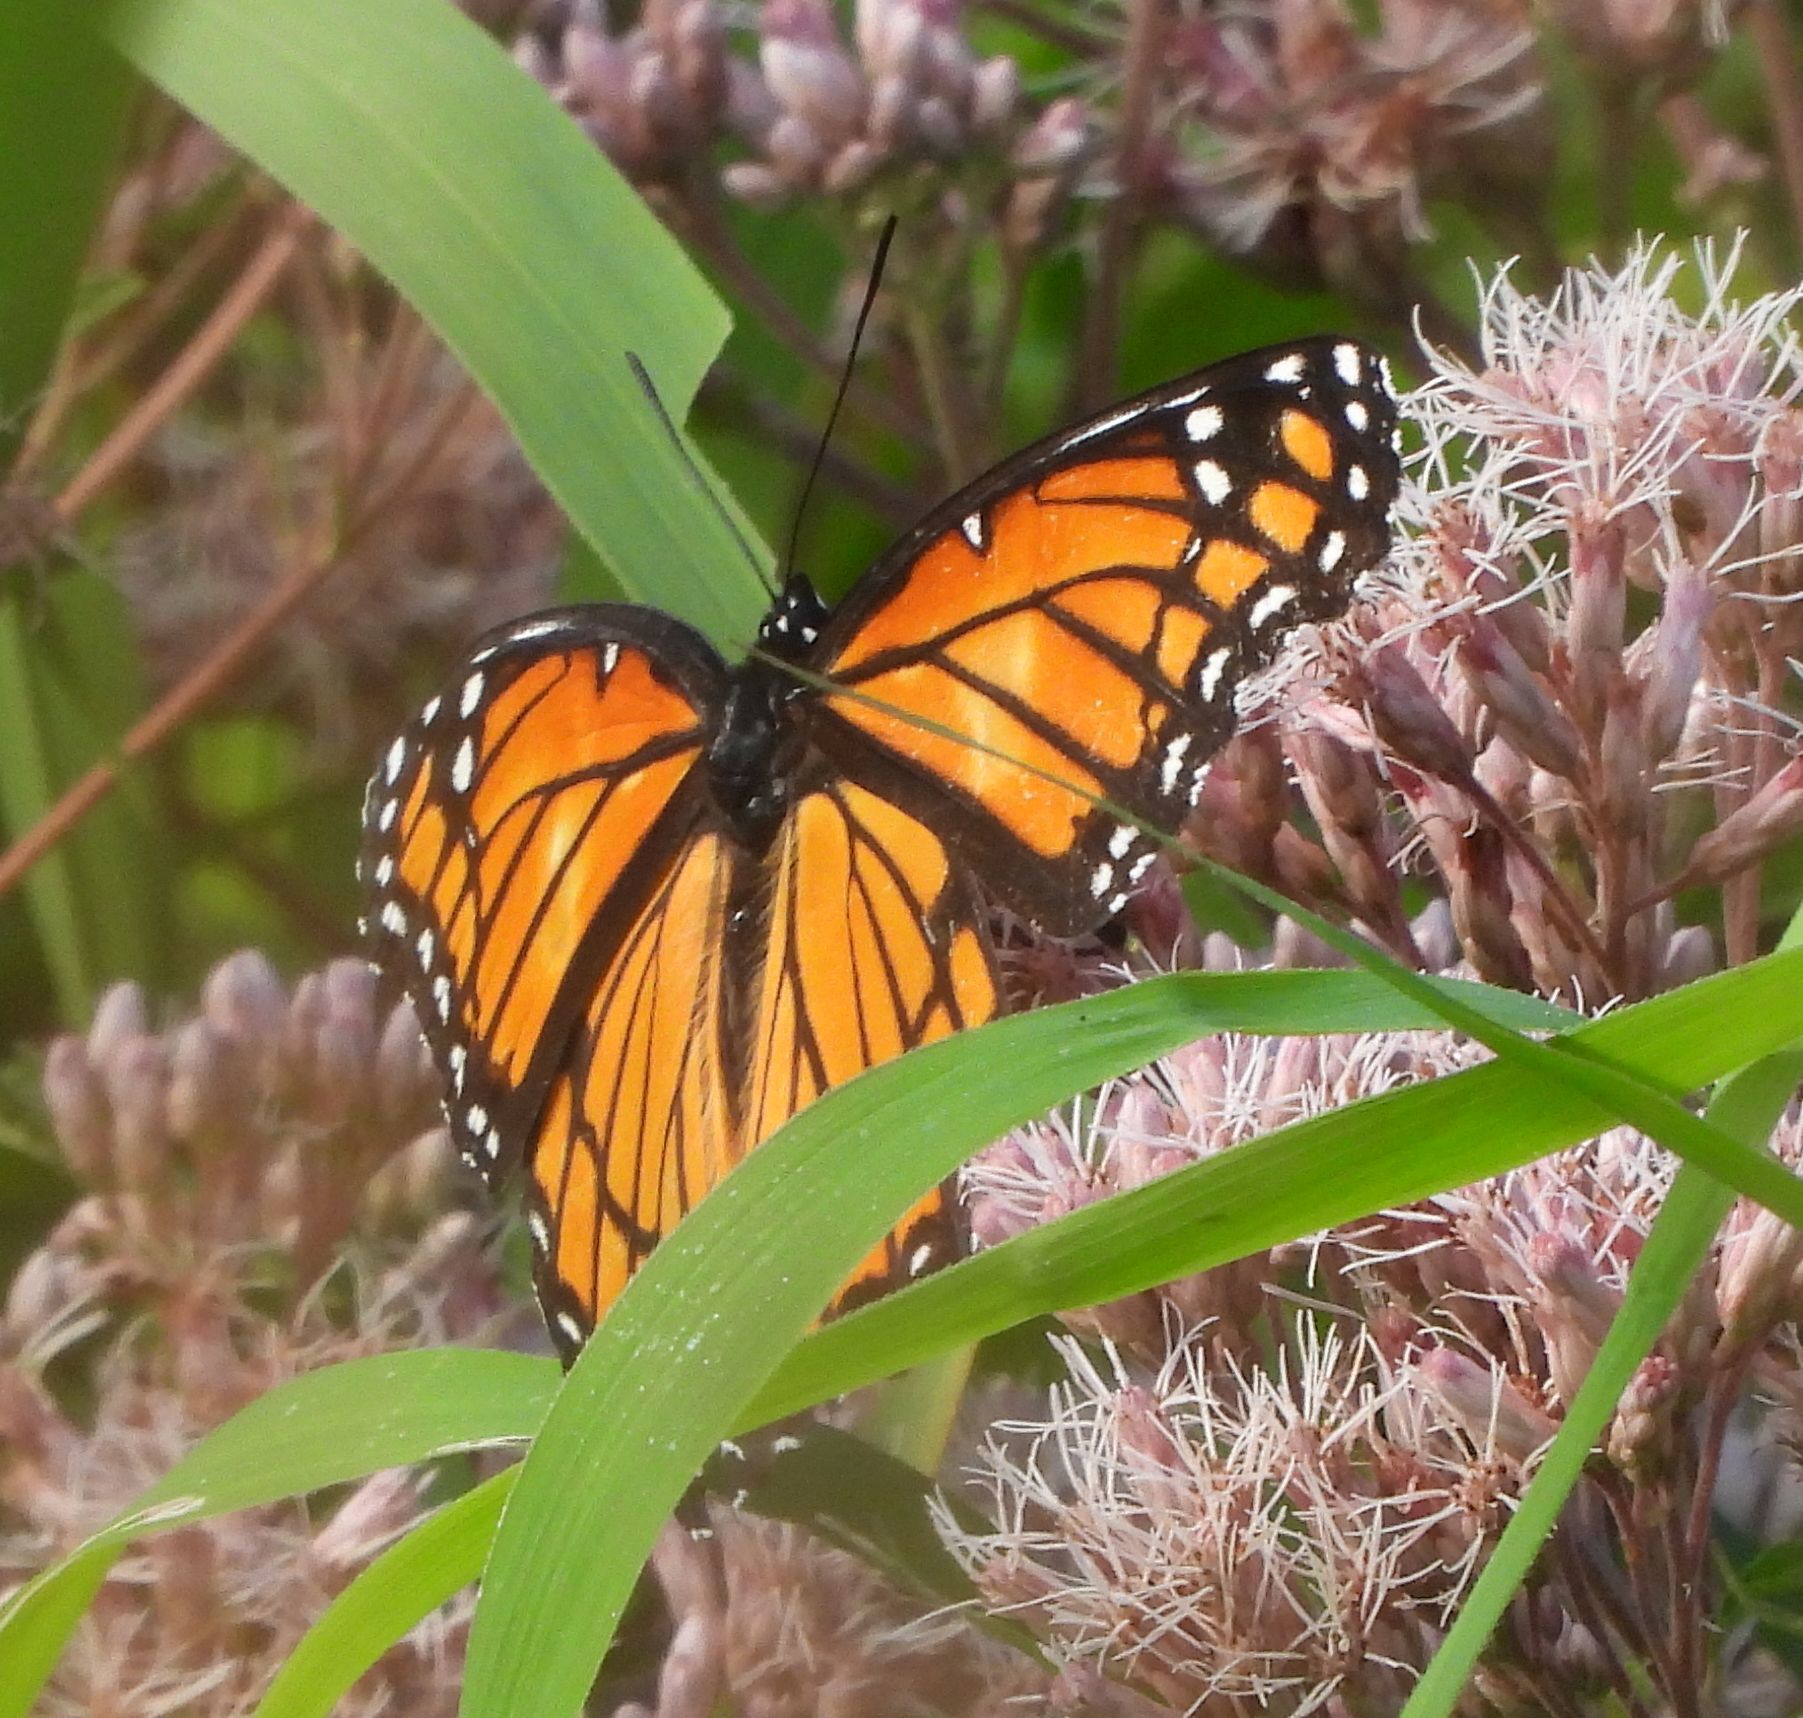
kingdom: Animalia
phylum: Arthropoda
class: Insecta
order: Lepidoptera
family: Nymphalidae
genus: Limenitis
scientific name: Limenitis archippus
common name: Viceroy
